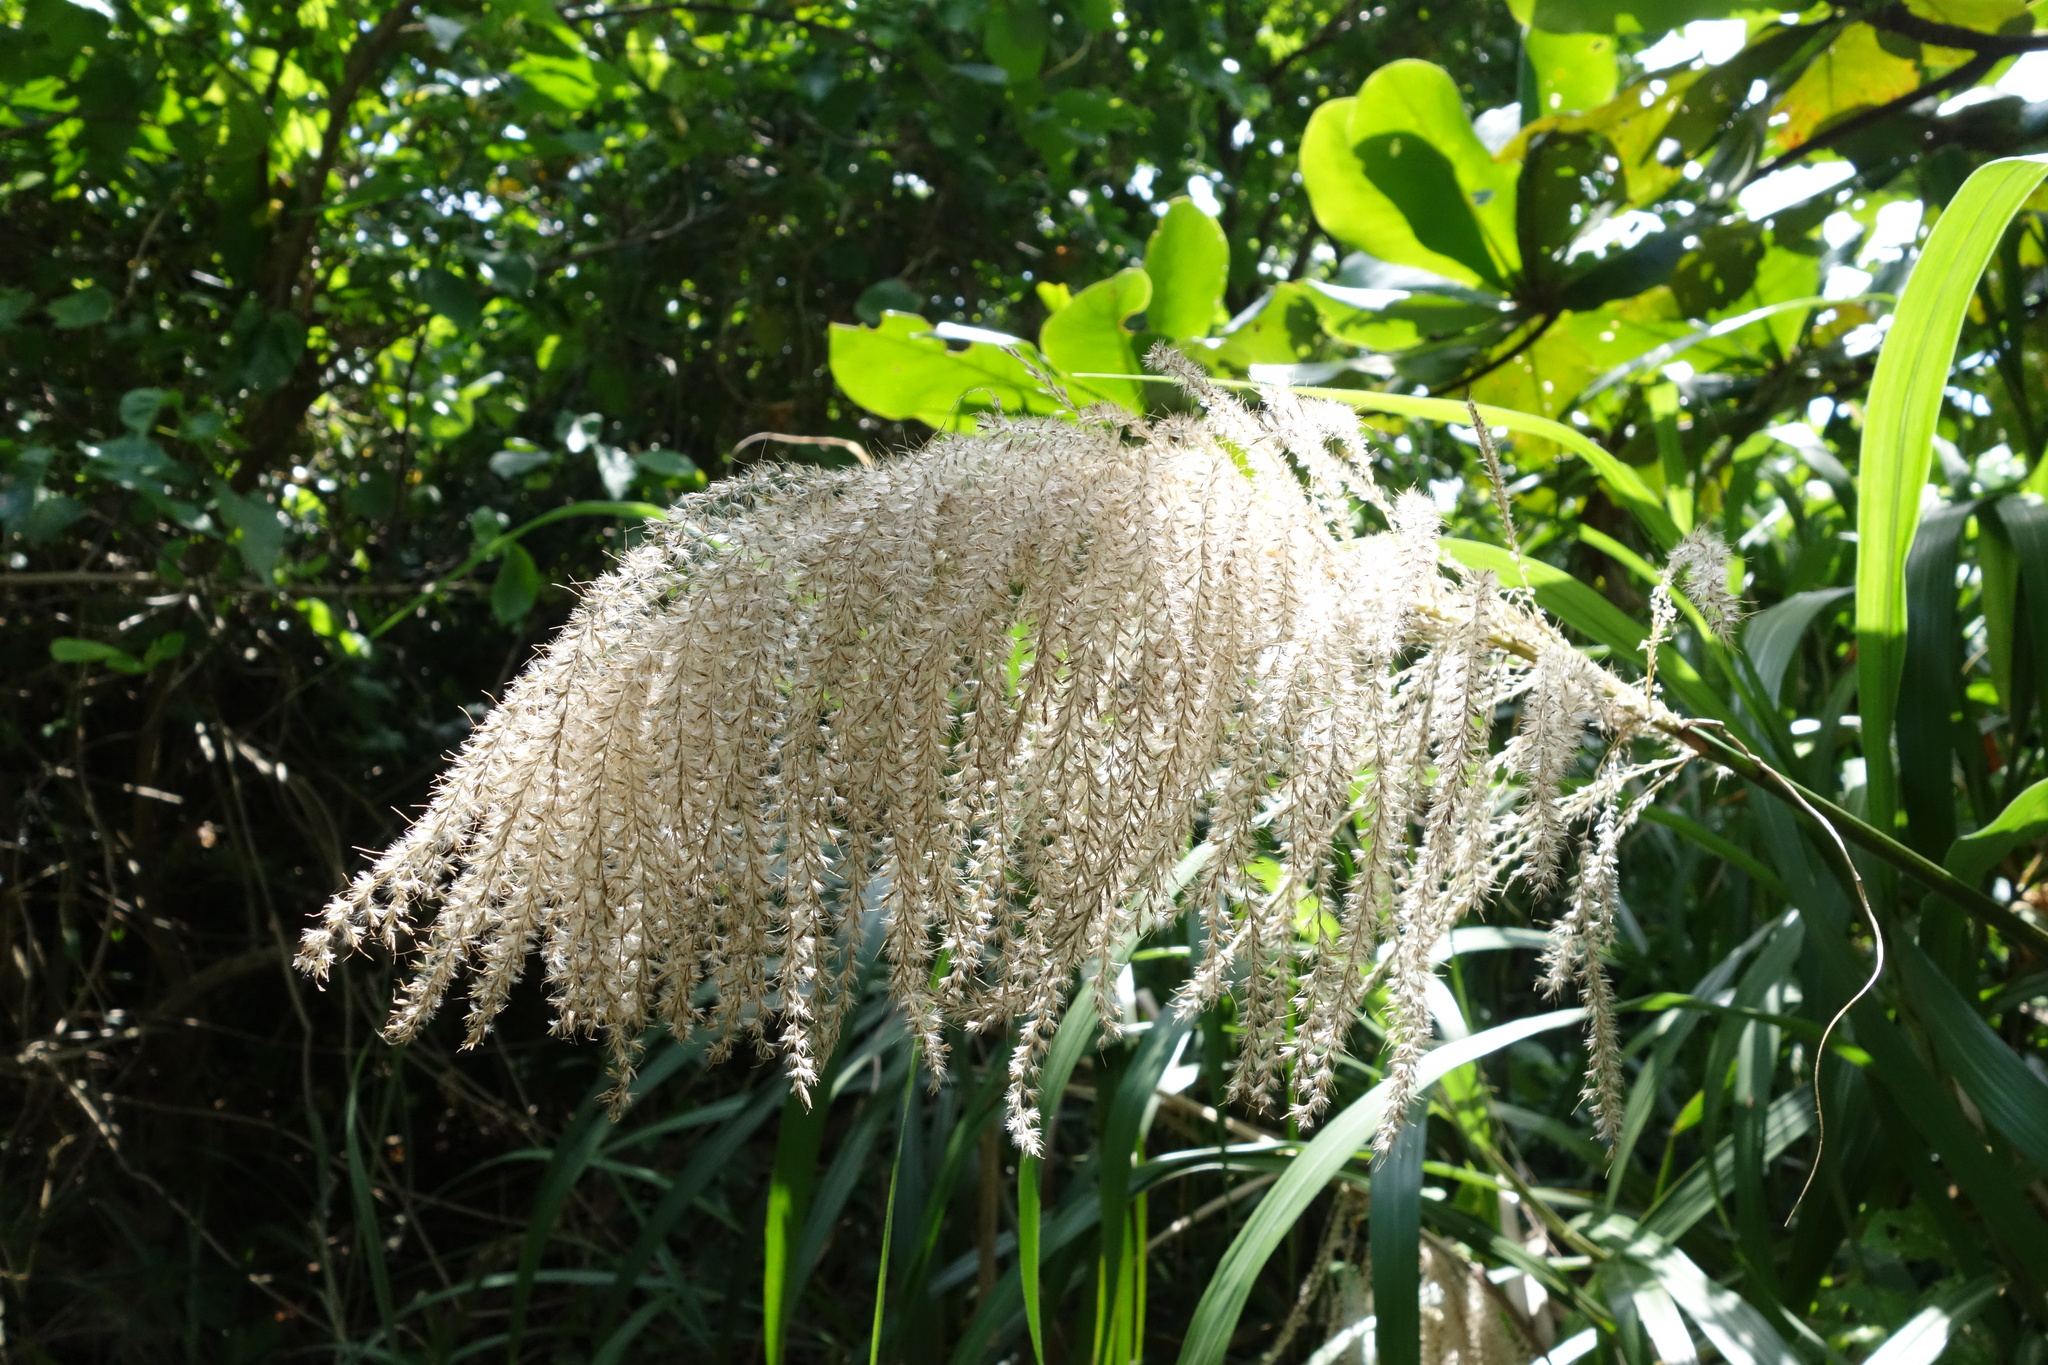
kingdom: Plantae
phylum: Tracheophyta
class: Liliopsida
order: Poales
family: Poaceae
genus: Miscanthus
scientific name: Miscanthus sinensis
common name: Chinese silvergrass
